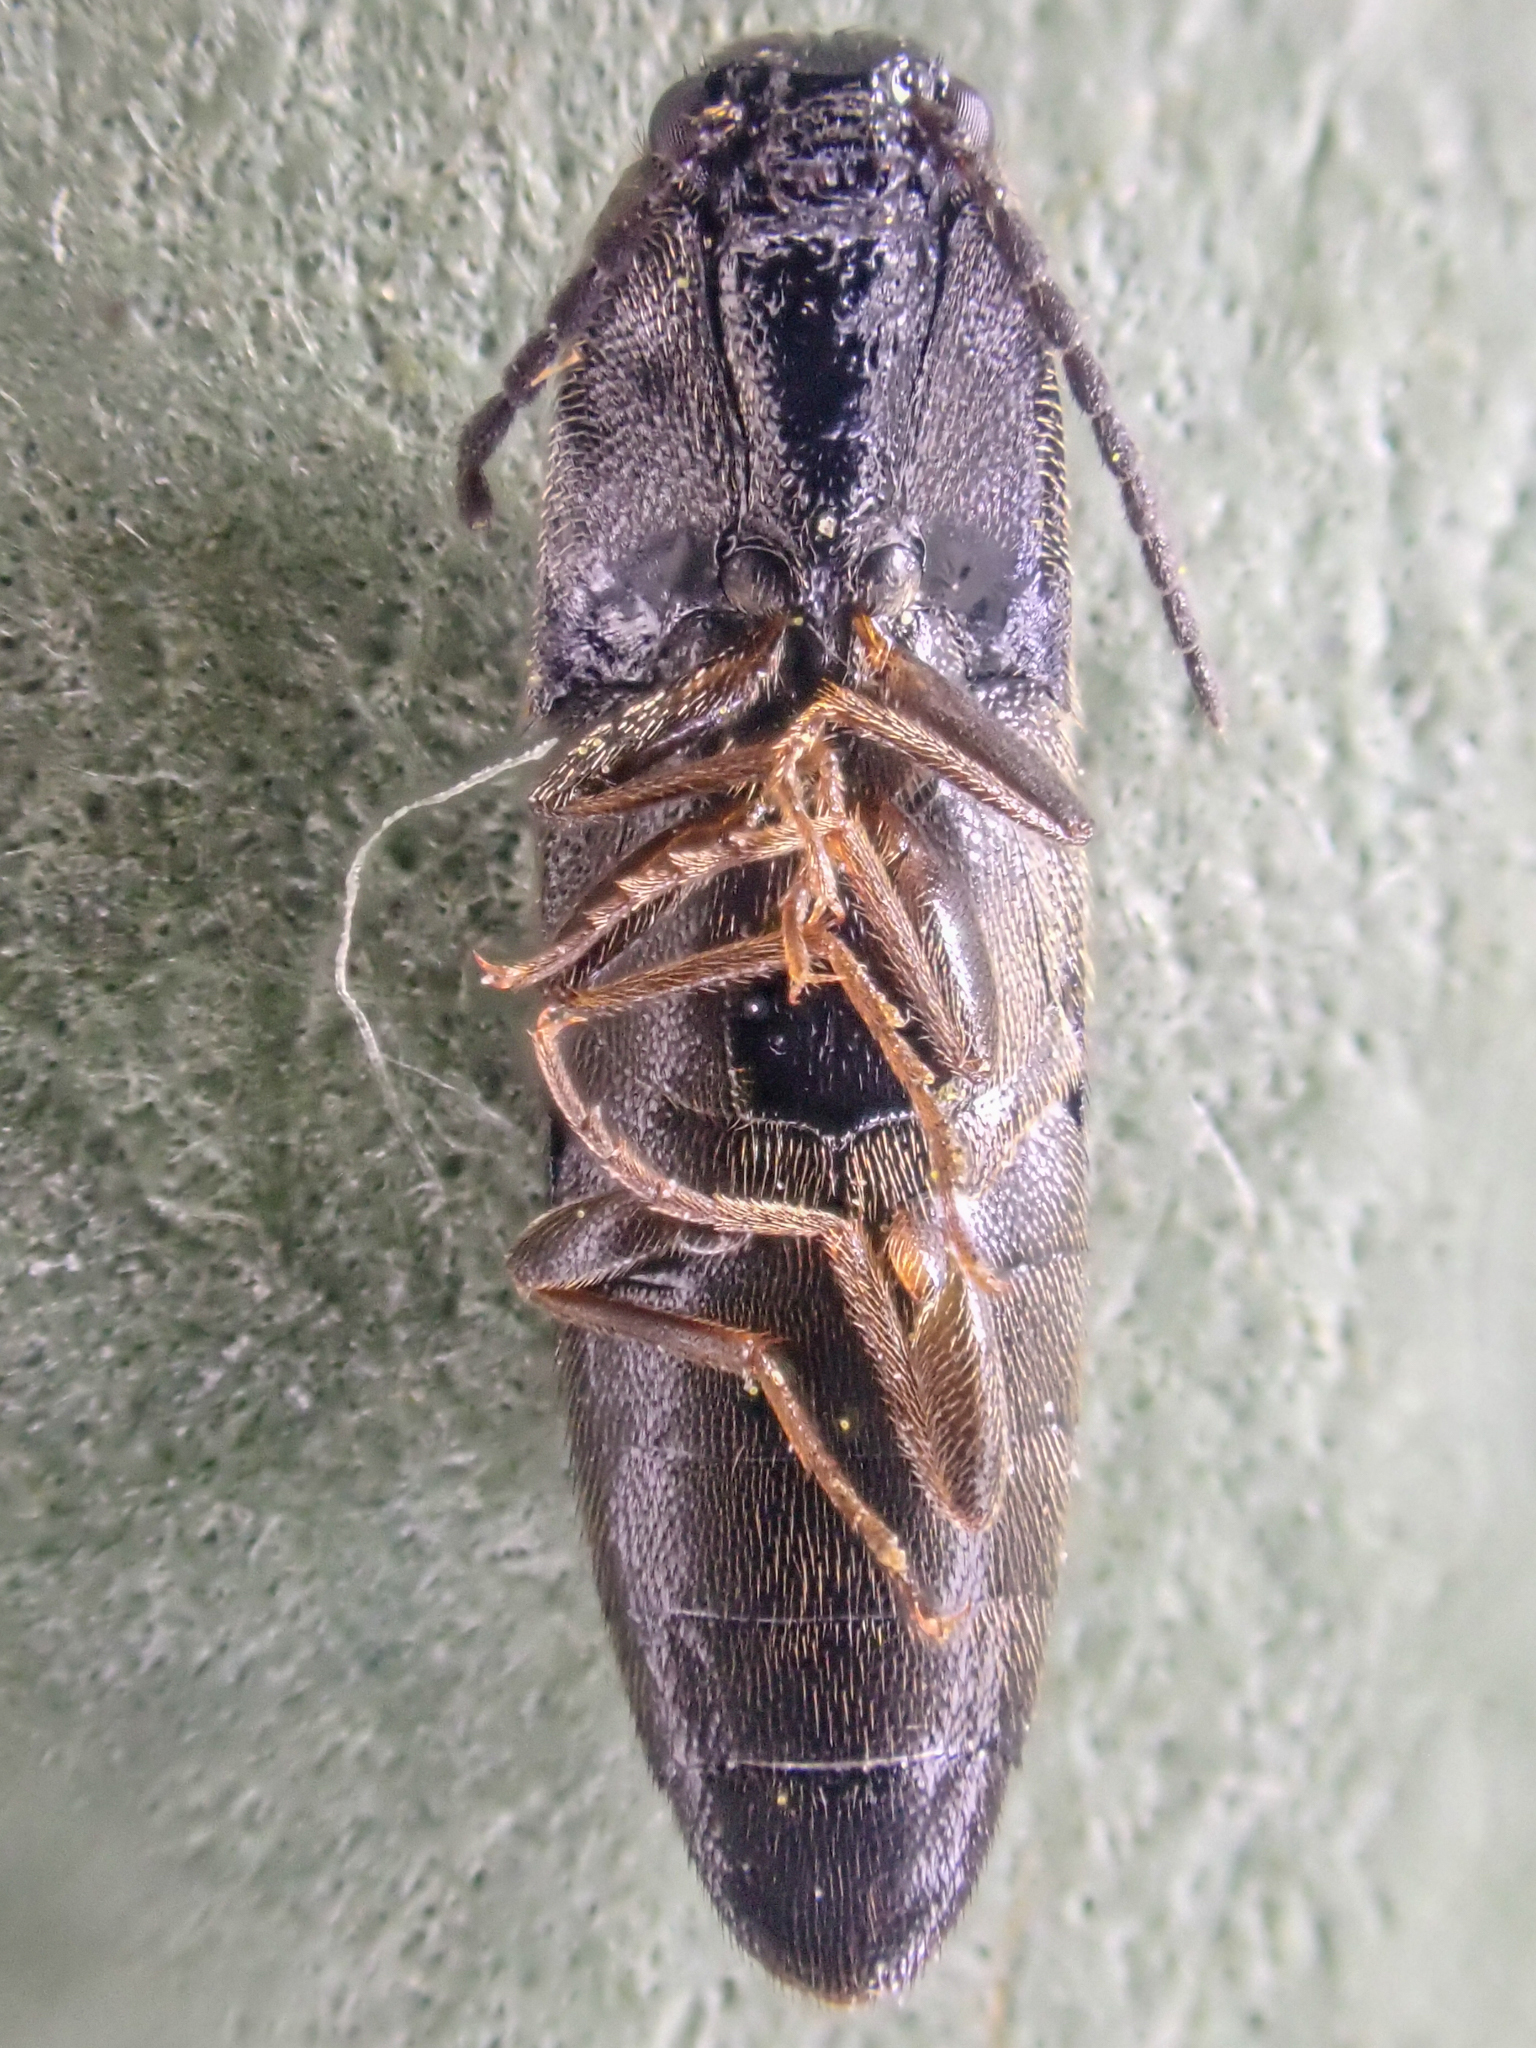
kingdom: Animalia
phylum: Arthropoda
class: Insecta
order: Coleoptera
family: Elateridae
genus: Megapenthes
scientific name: Megapenthes caprella
